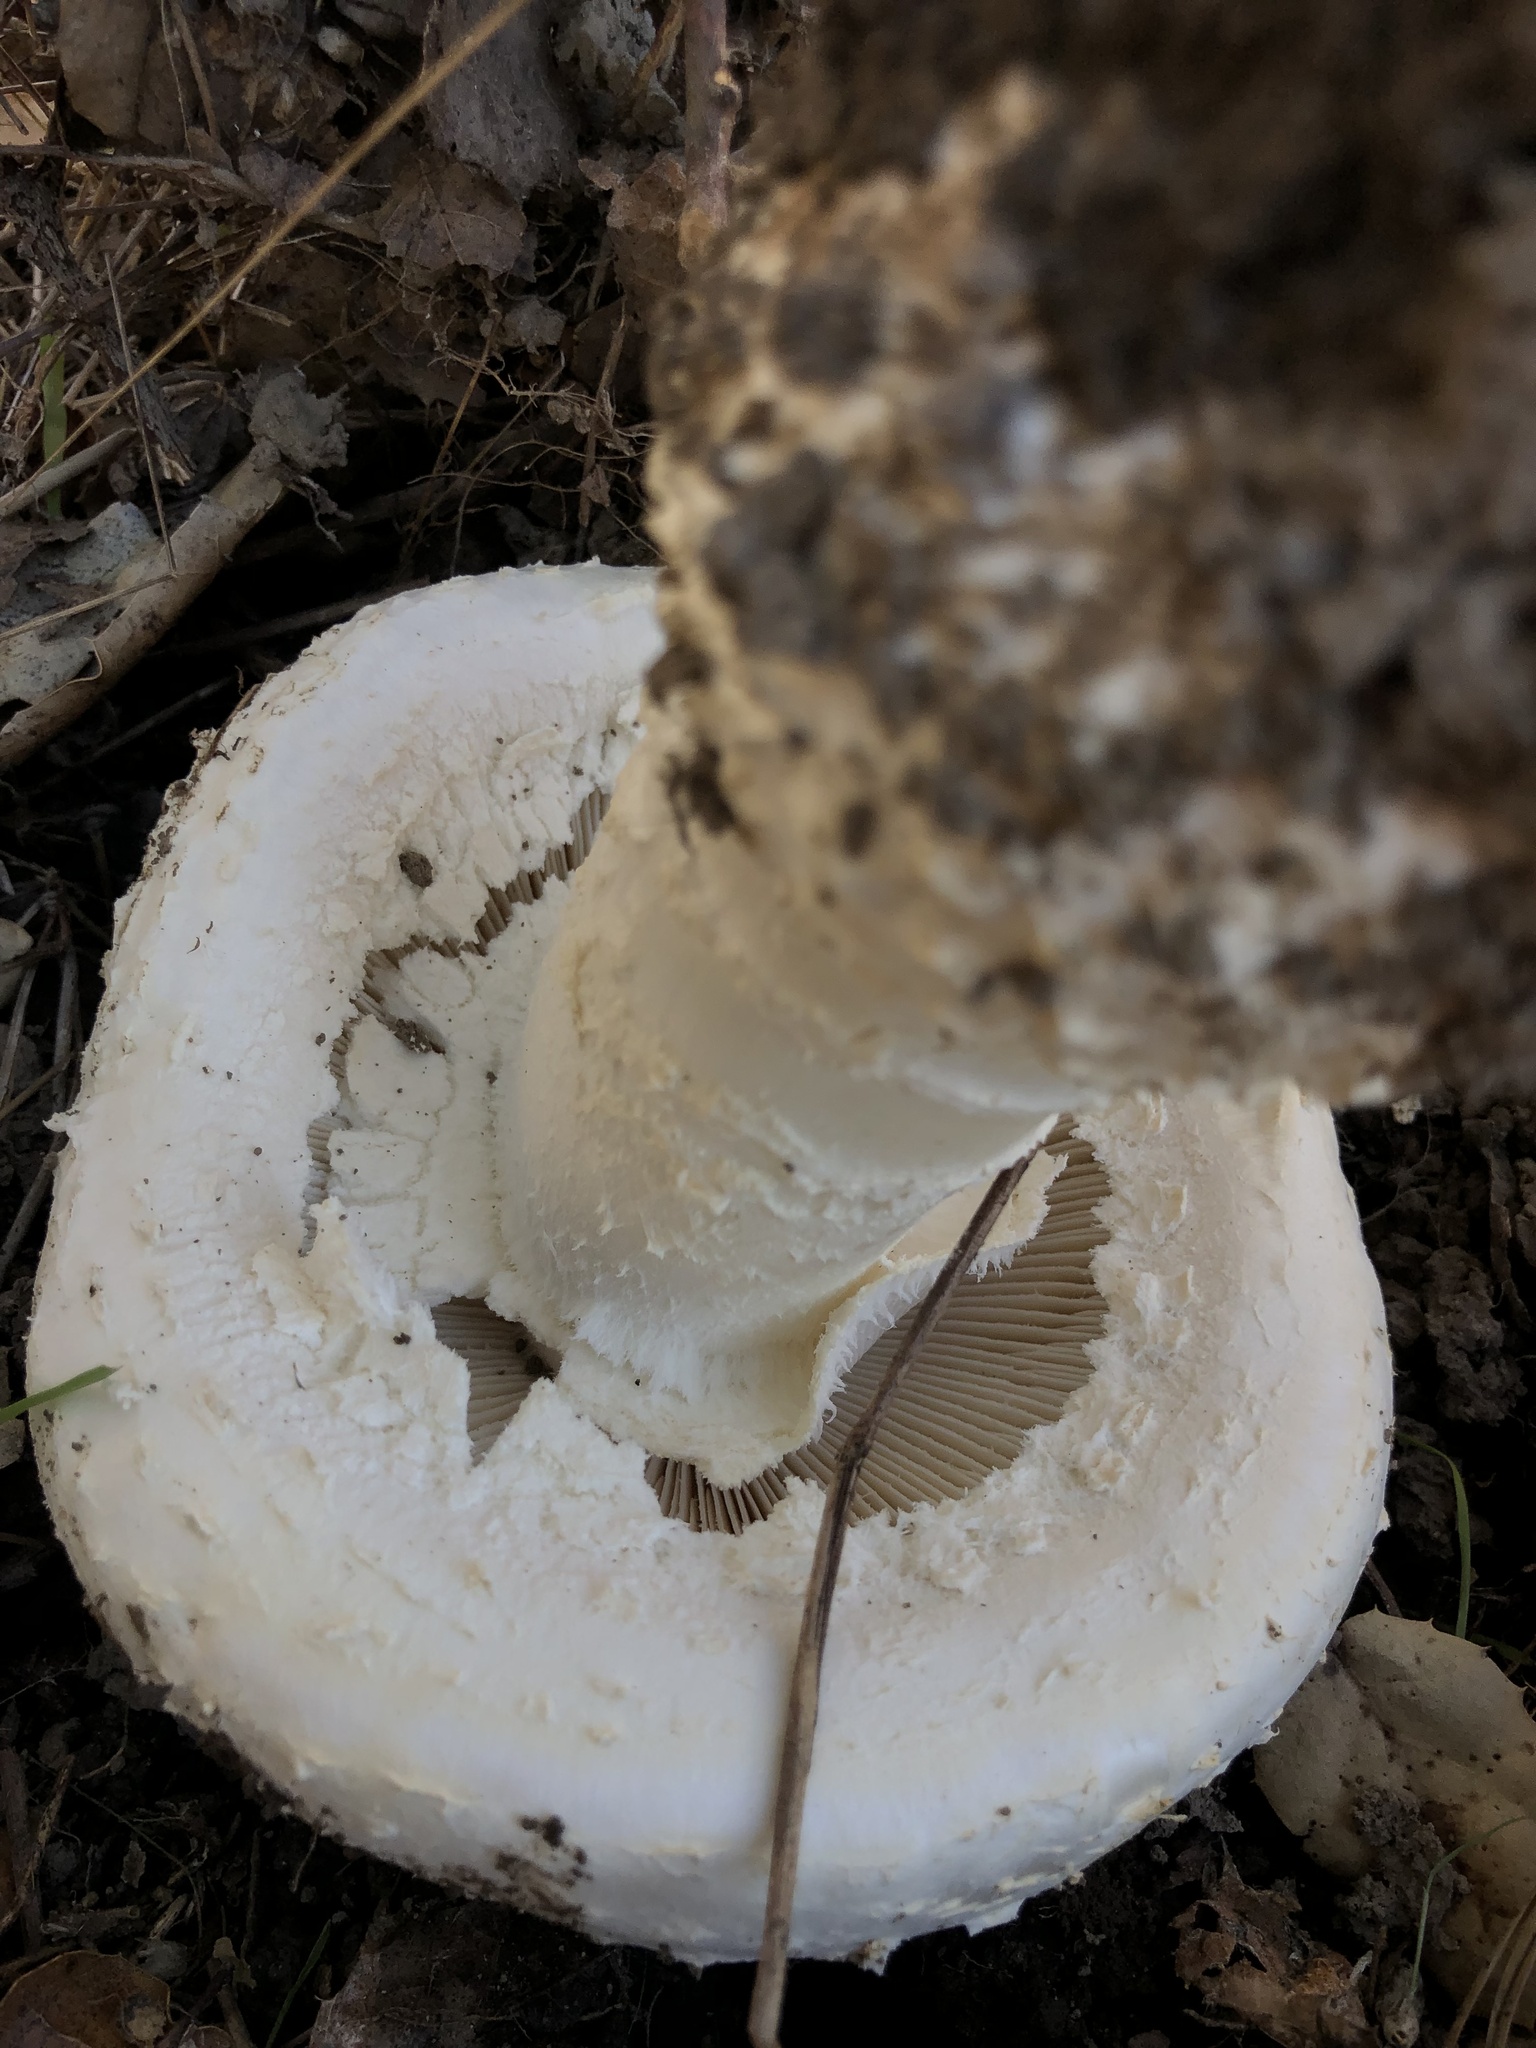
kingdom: Fungi
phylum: Basidiomycota
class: Agaricomycetes
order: Agaricales
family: Amanitaceae
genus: Amanita
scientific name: Amanita smithiana
